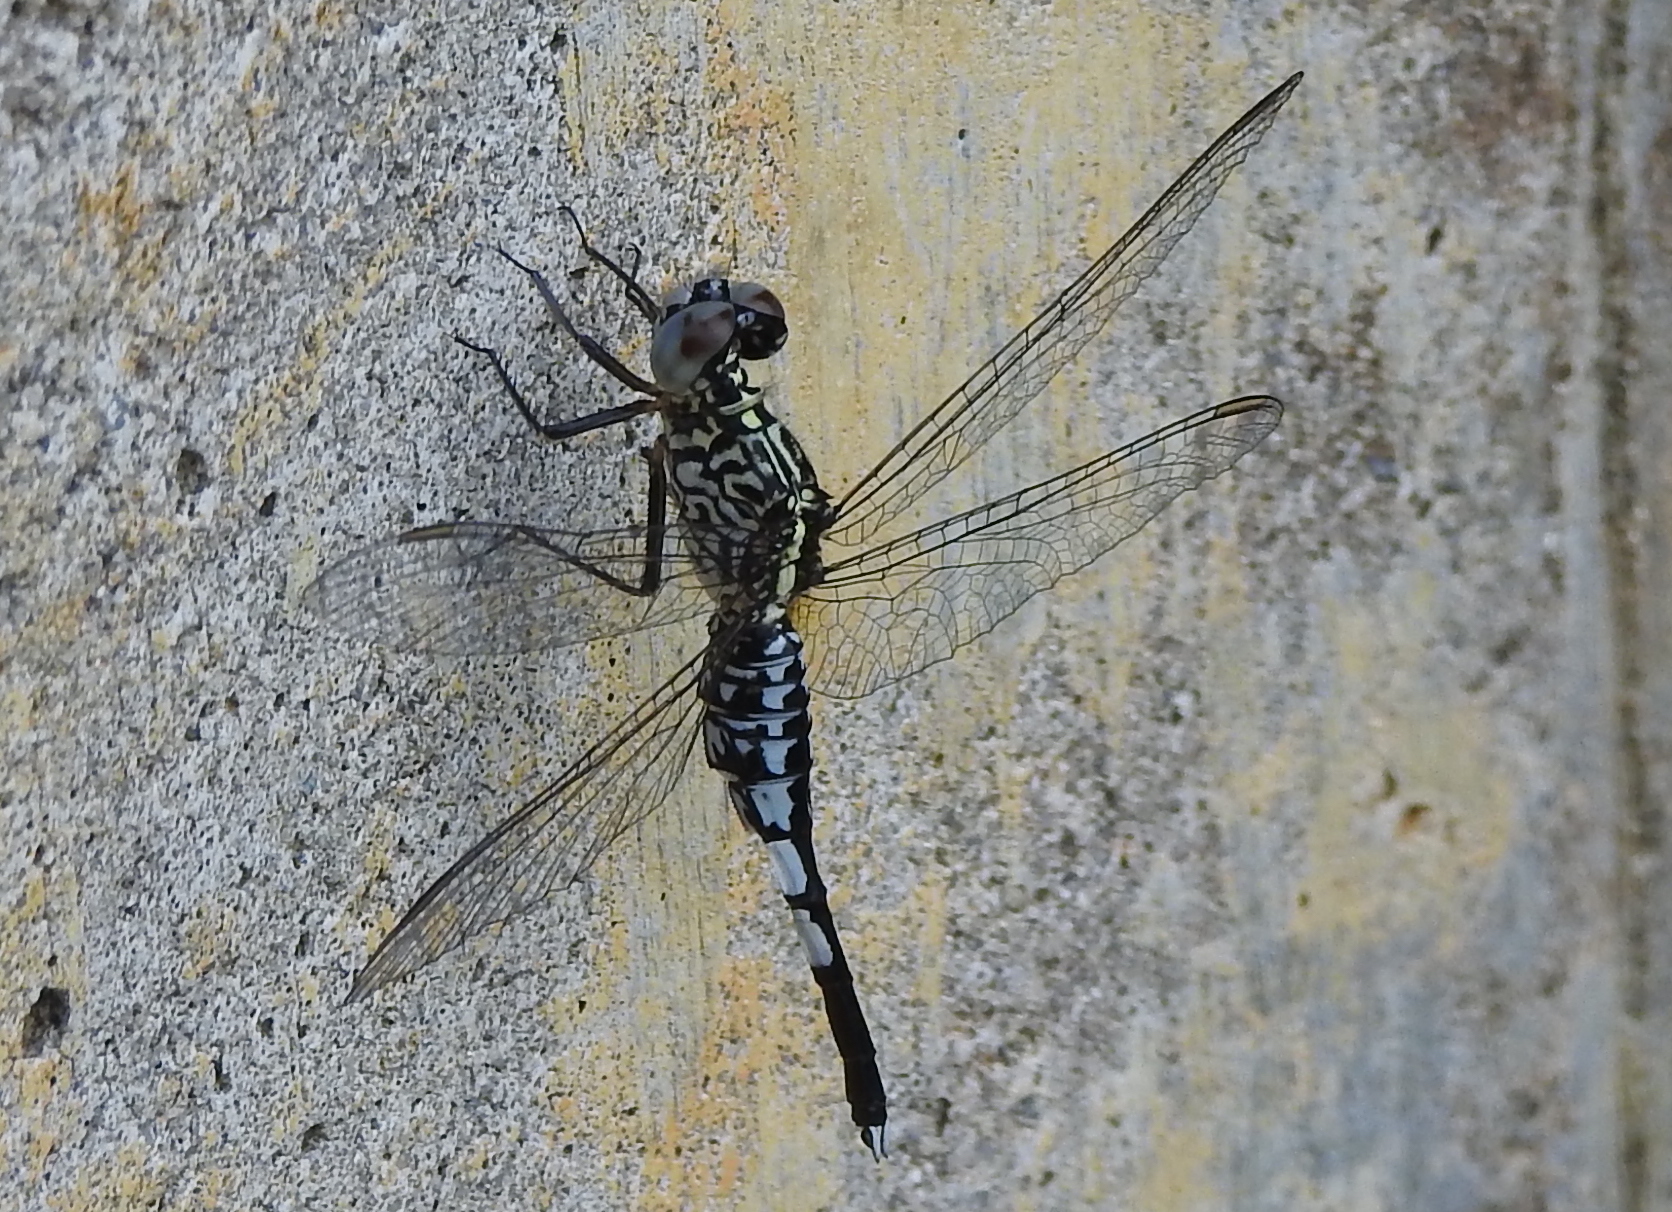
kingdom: Animalia
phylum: Arthropoda
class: Insecta
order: Odonata
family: Libellulidae
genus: Acisoma
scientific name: Acisoma panorpoides
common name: Asian pintail
